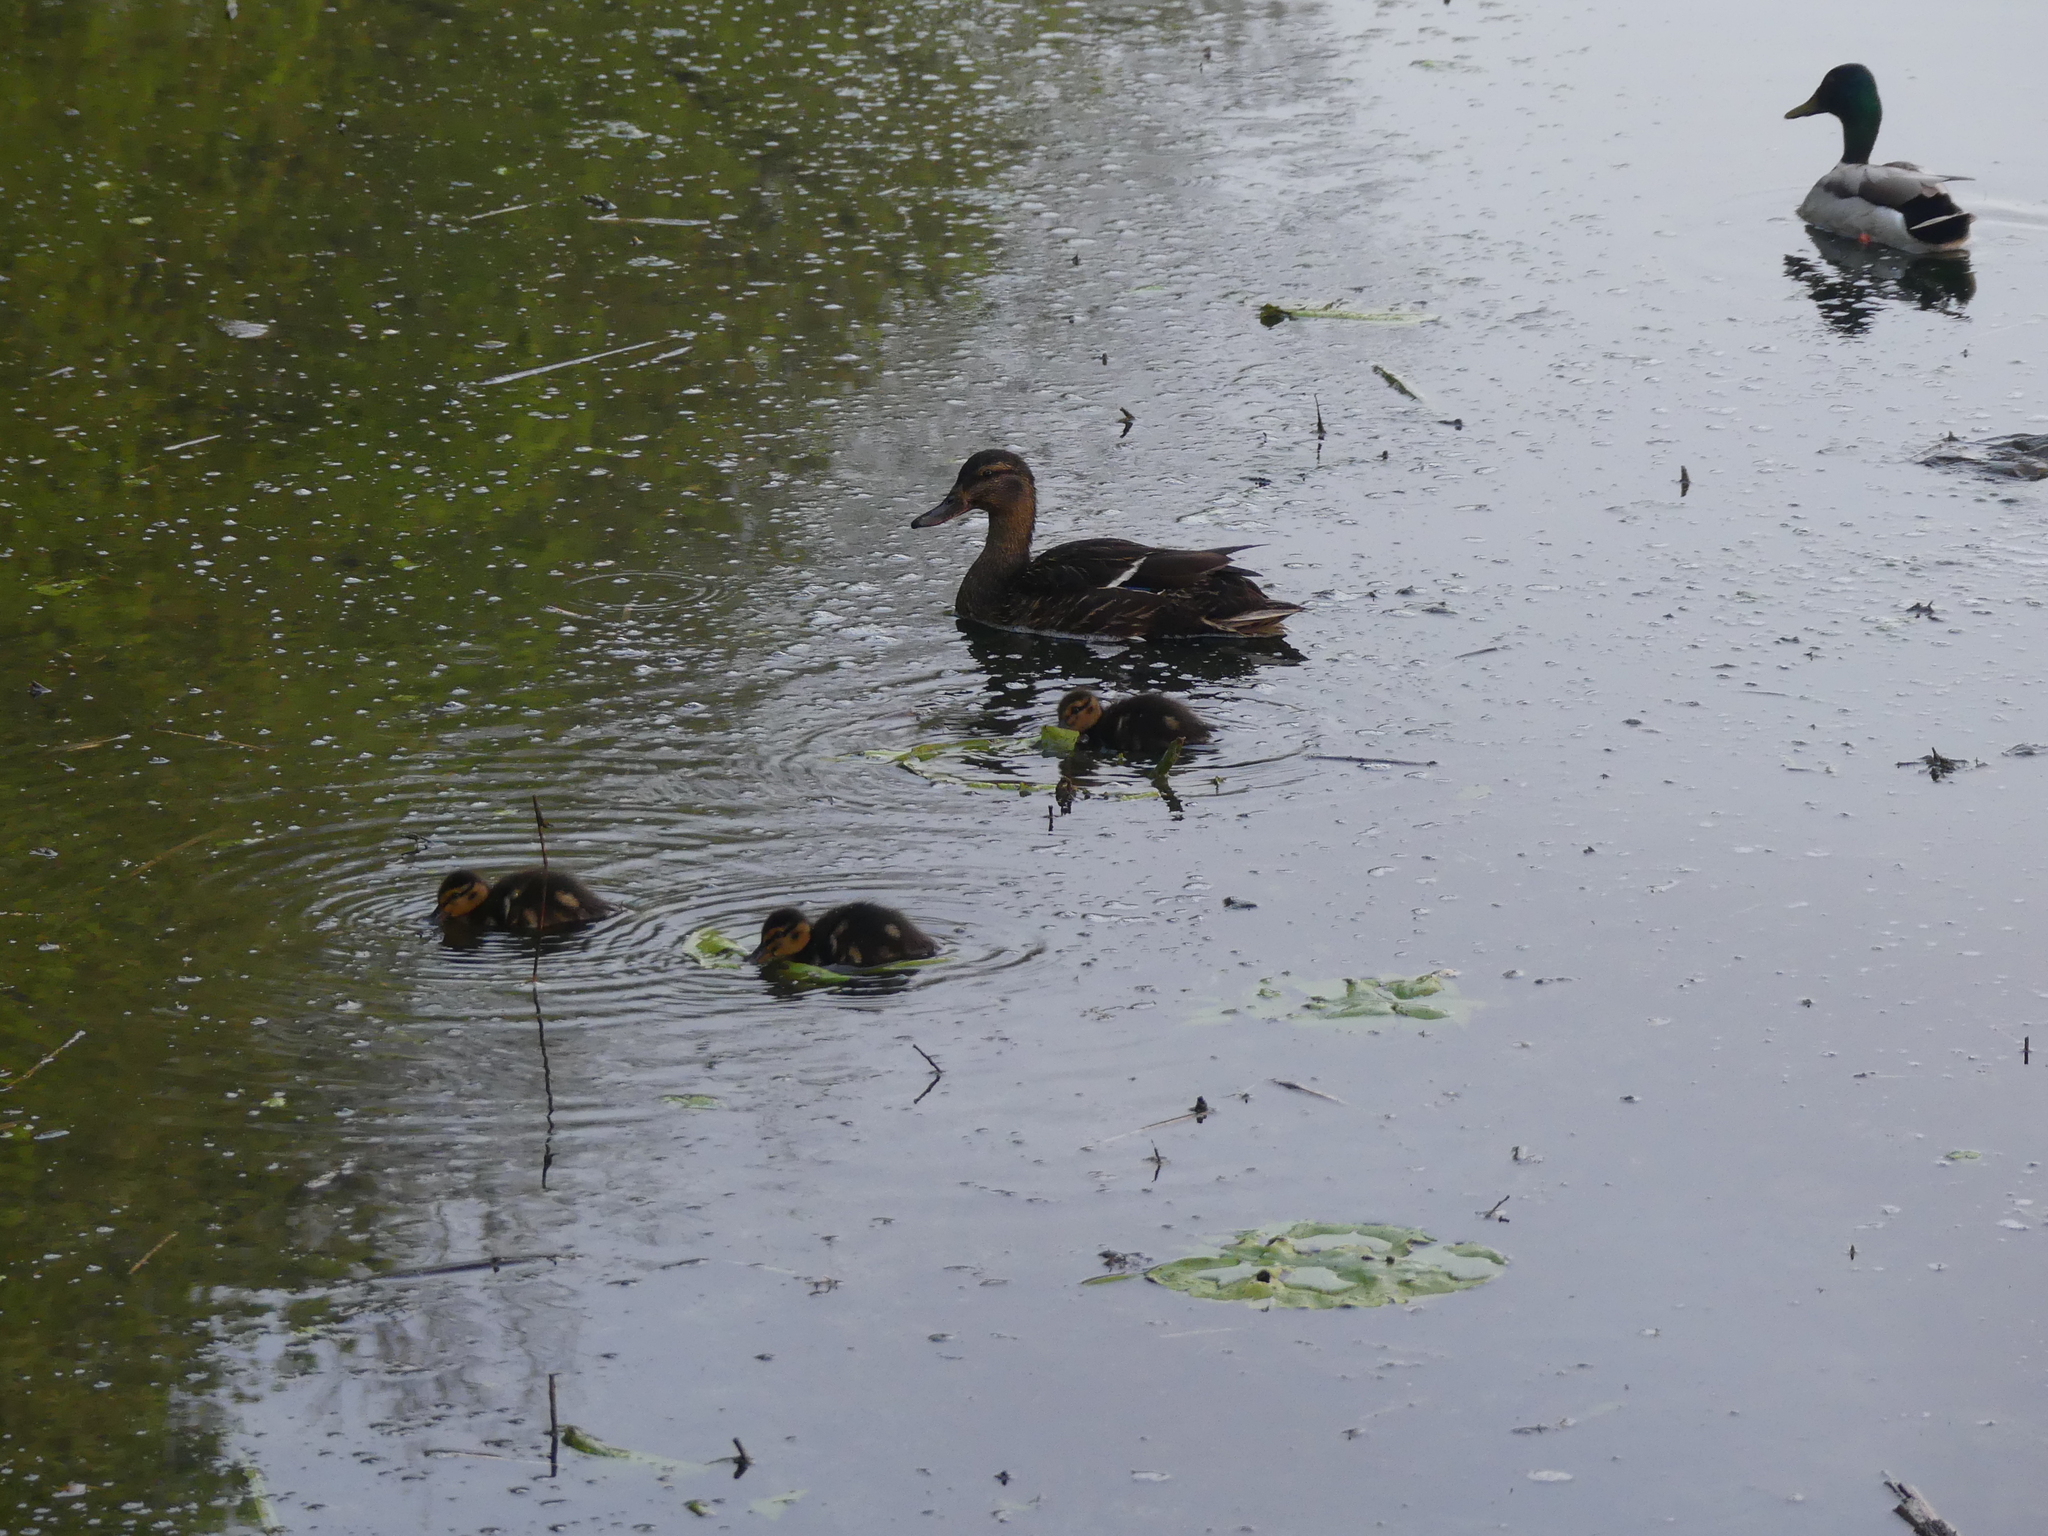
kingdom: Animalia
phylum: Chordata
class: Aves
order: Anseriformes
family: Anatidae
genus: Anas
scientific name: Anas platyrhynchos
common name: Mallard
